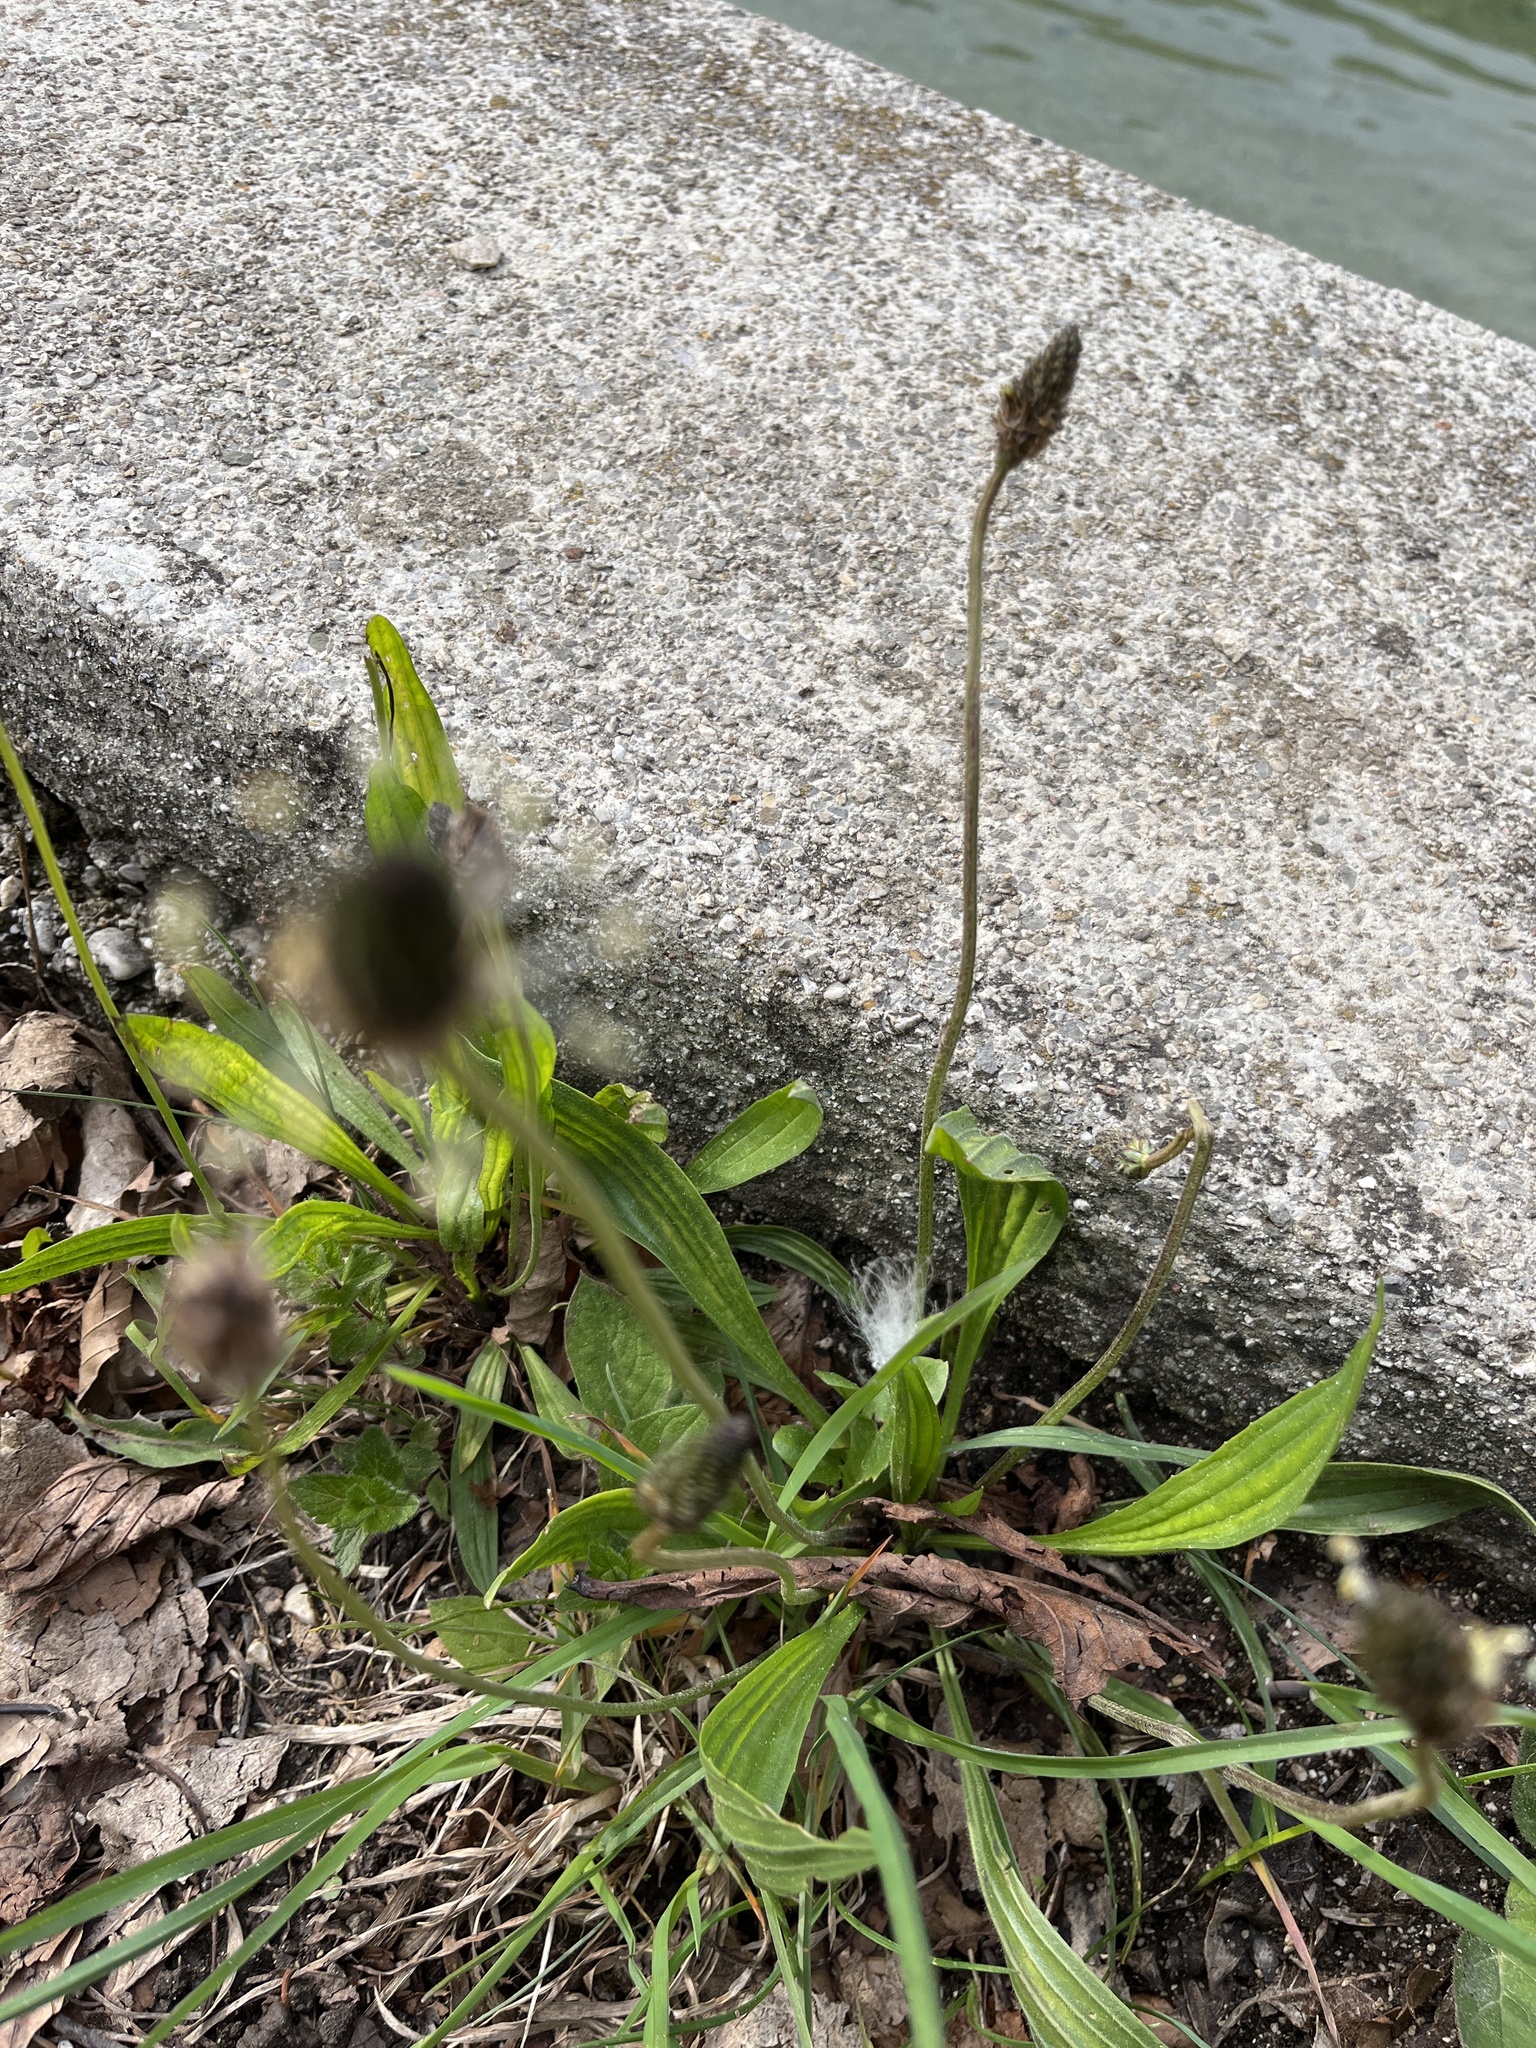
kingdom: Plantae
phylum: Tracheophyta
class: Magnoliopsida
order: Lamiales
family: Plantaginaceae
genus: Plantago
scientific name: Plantago lanceolata
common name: Ribwort plantain
